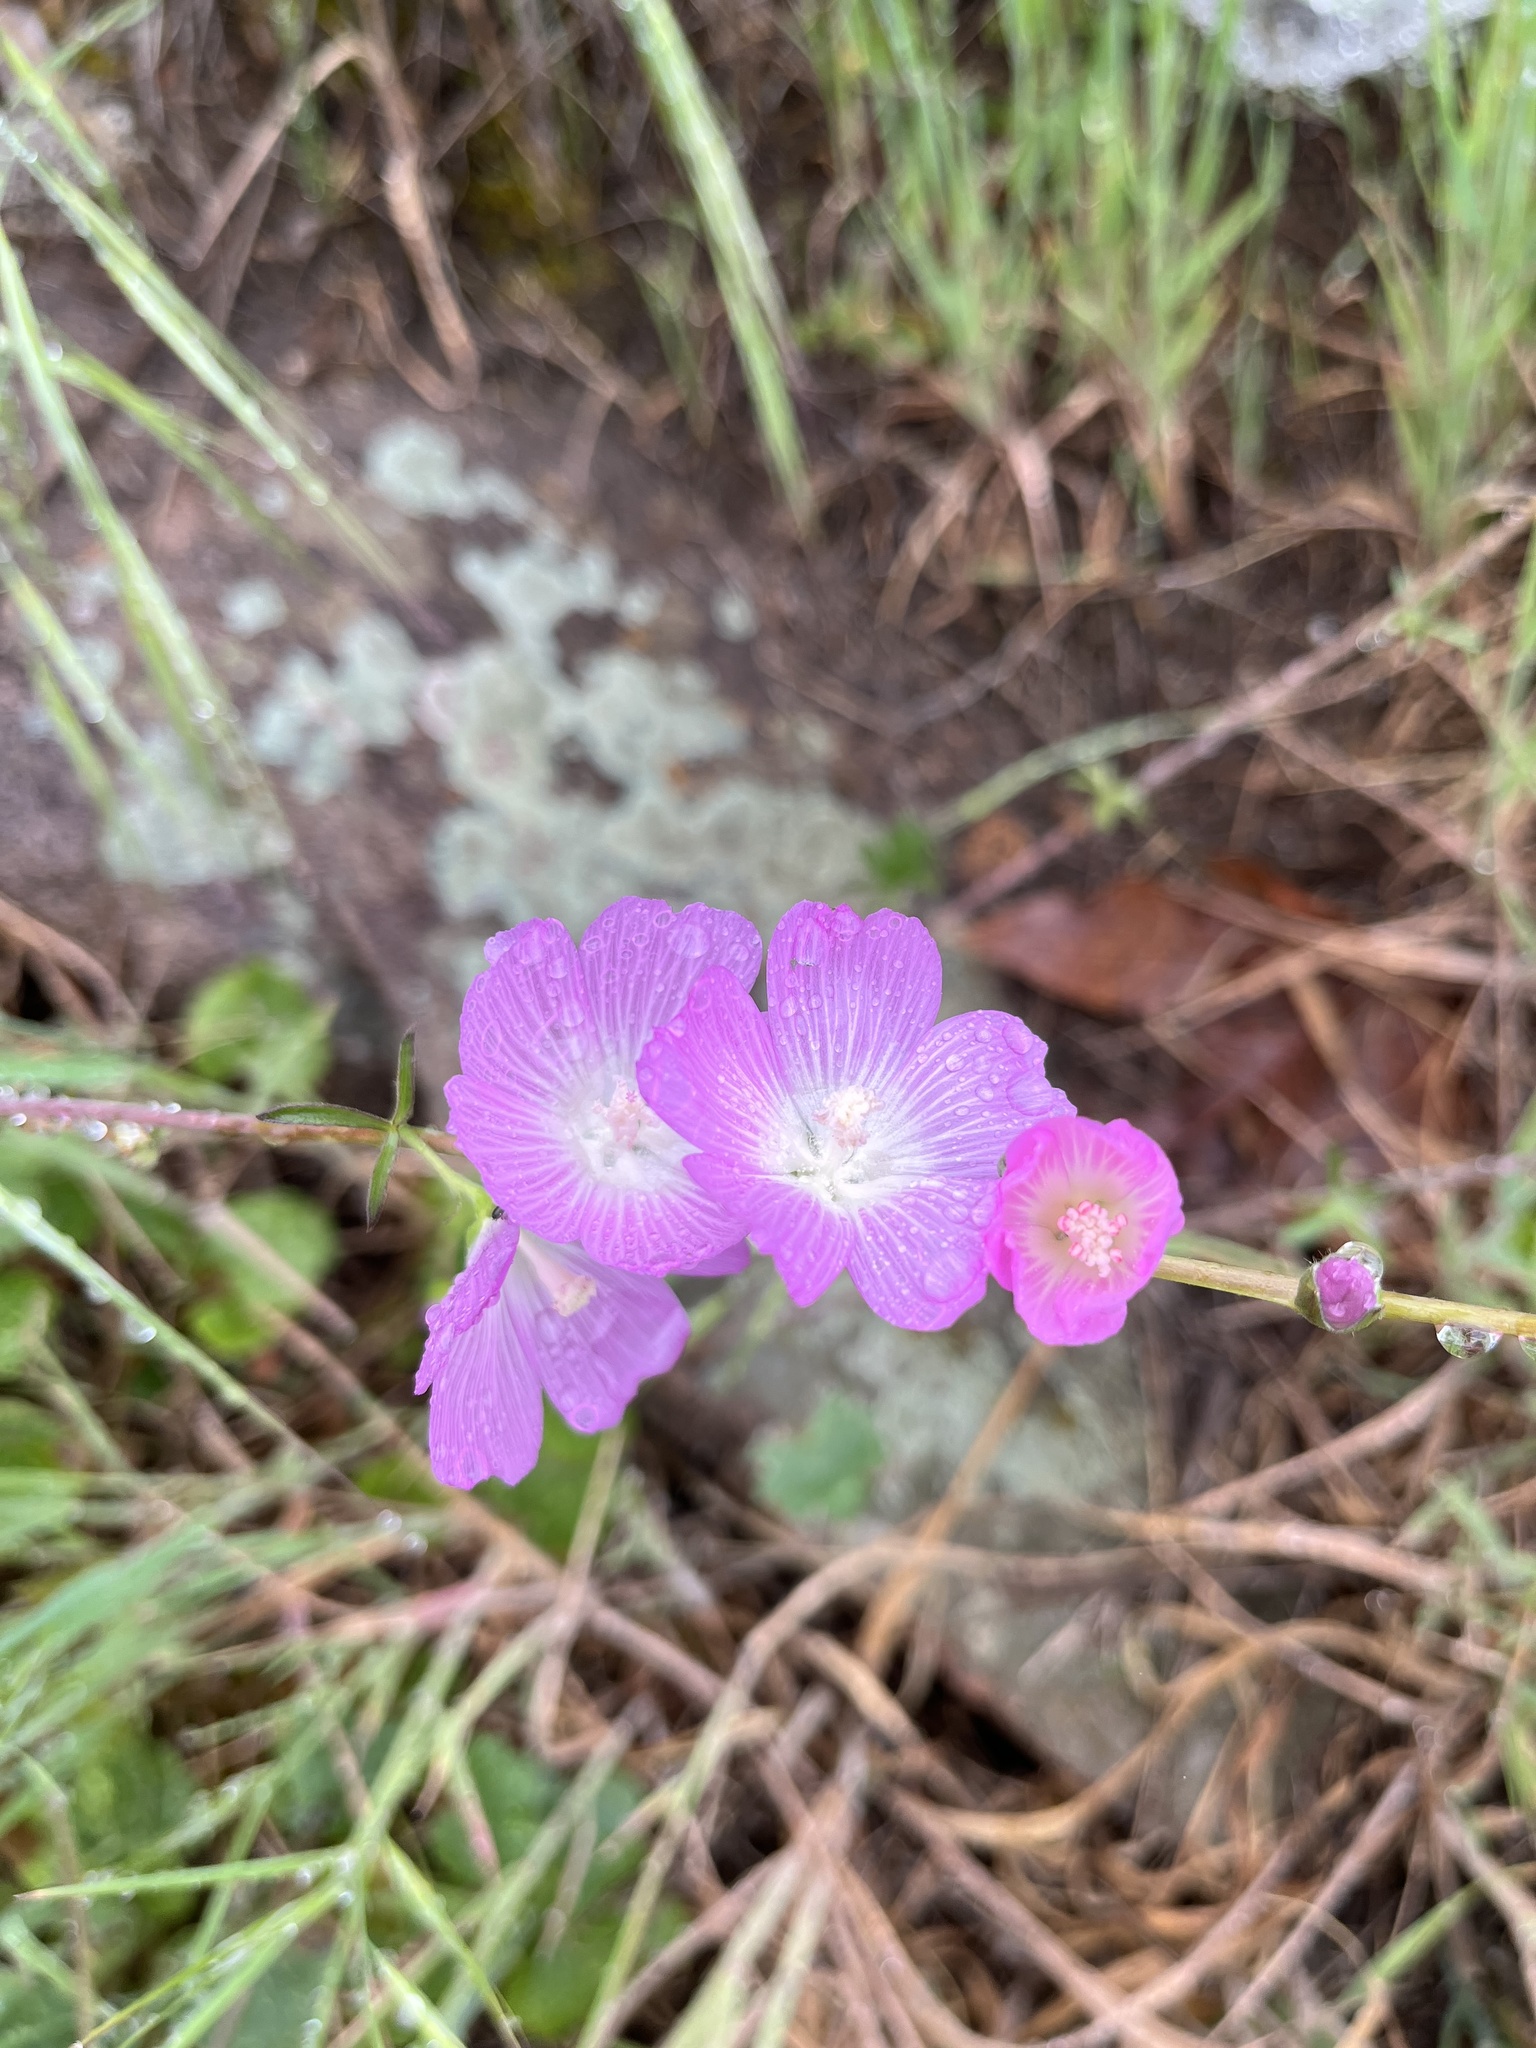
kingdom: Plantae
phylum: Tracheophyta
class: Magnoliopsida
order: Malvales
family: Malvaceae
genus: Sidalcea
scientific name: Sidalcea sparsifolia
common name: Southern checkerbloom
